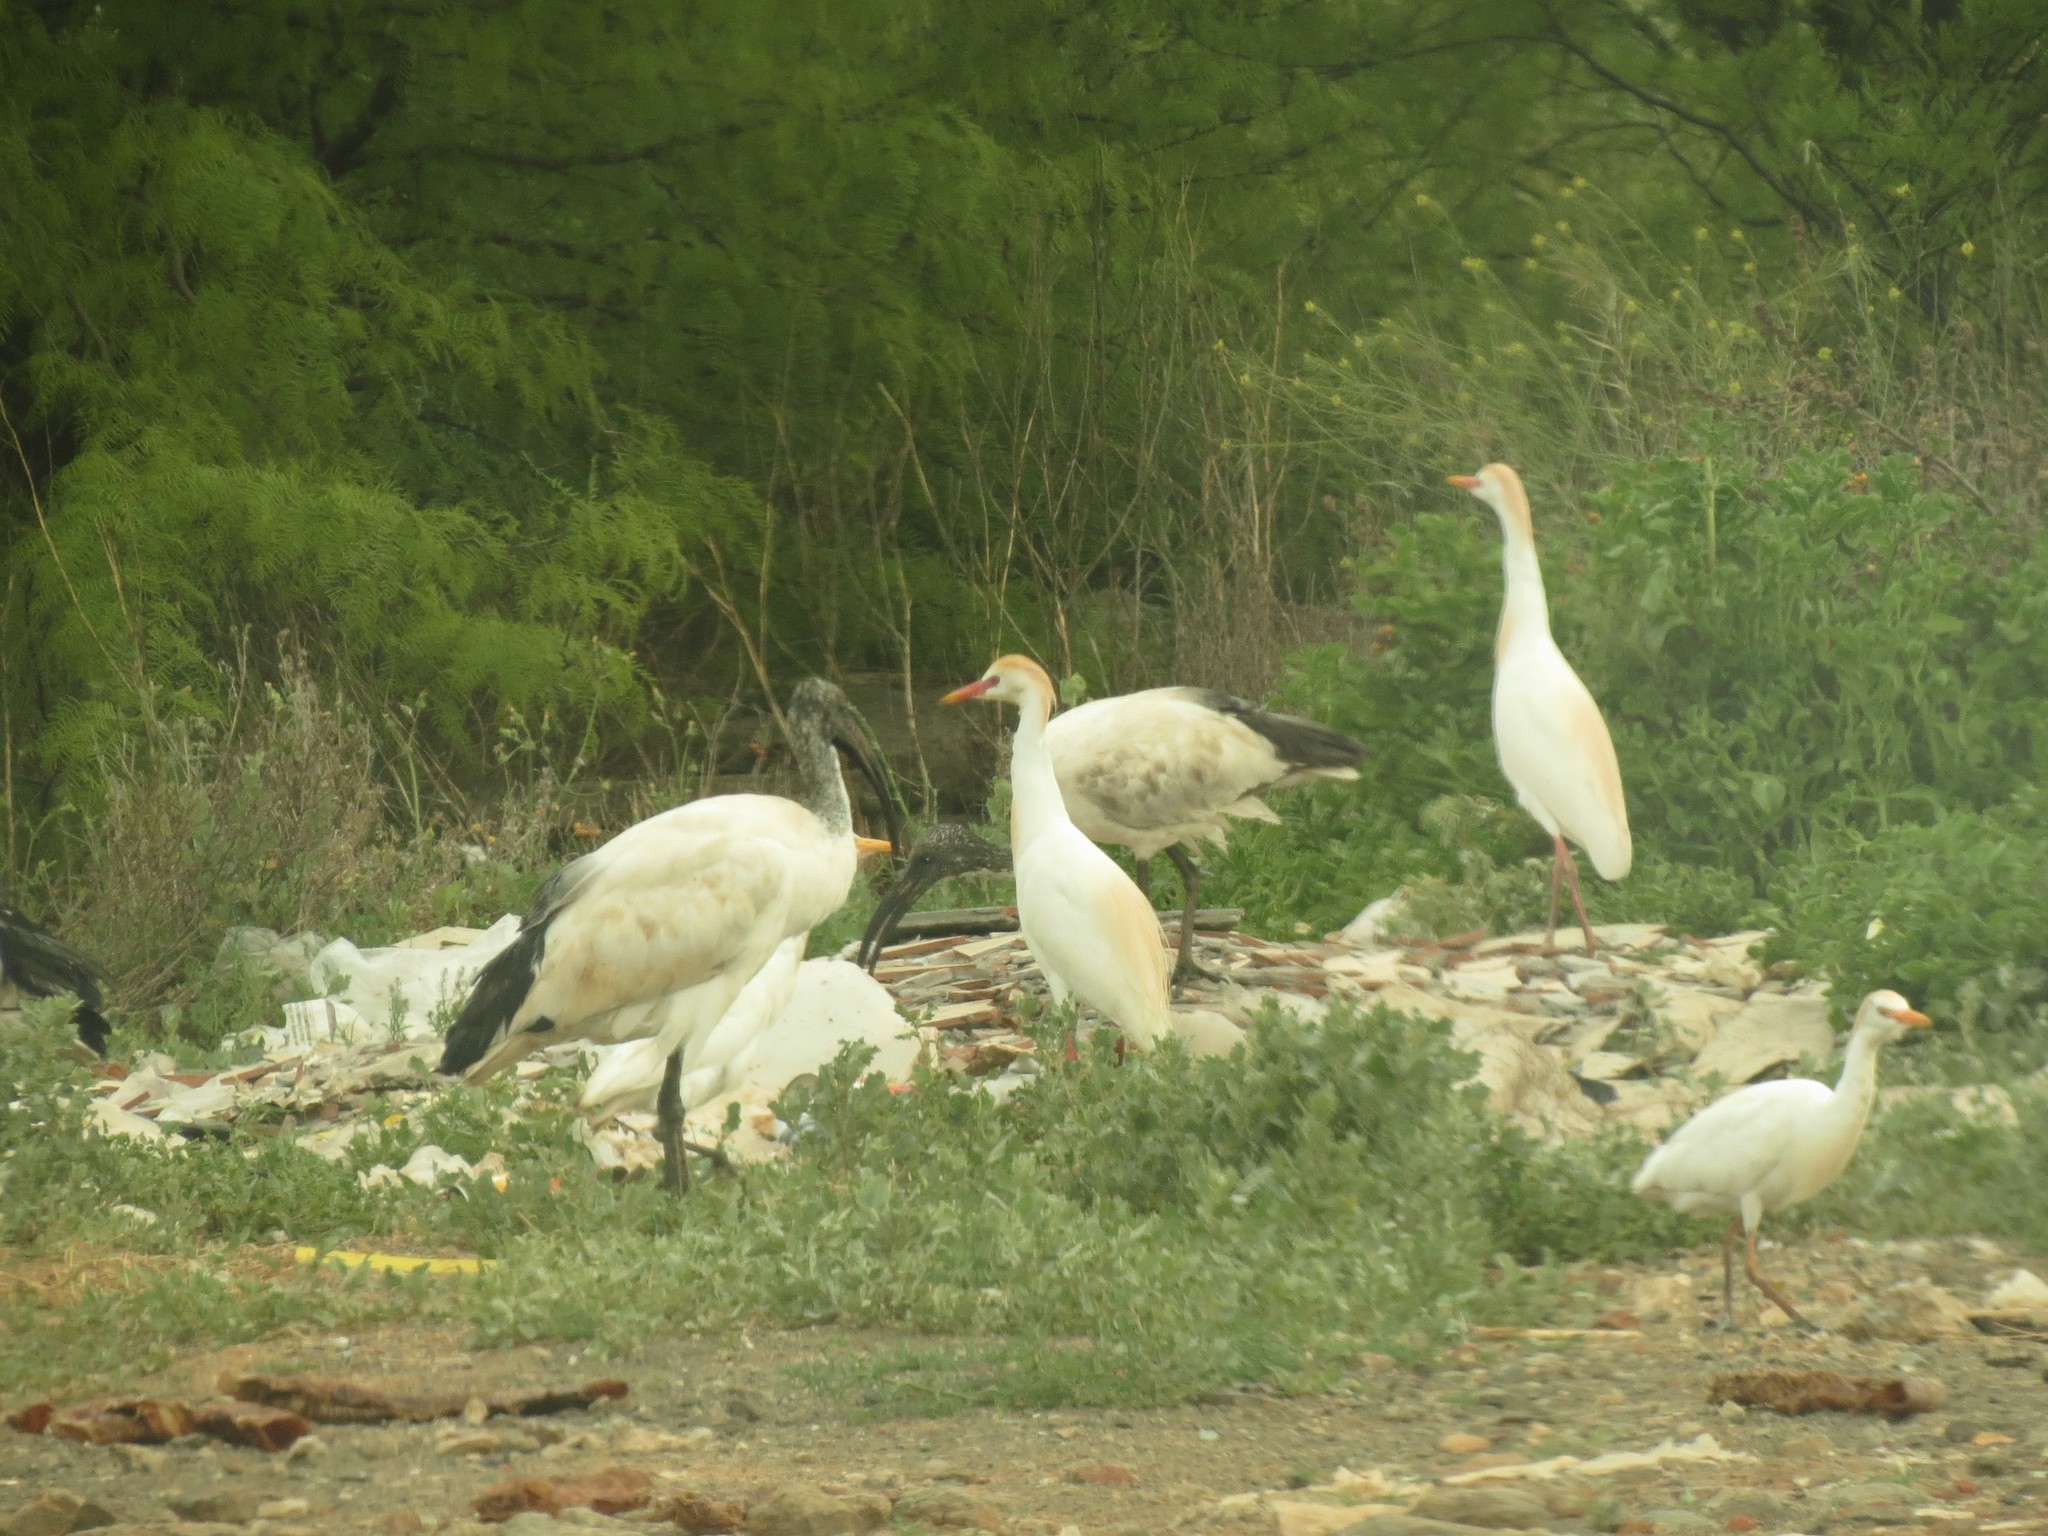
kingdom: Animalia
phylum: Chordata
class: Aves
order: Pelecaniformes
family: Ardeidae
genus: Bubulcus
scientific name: Bubulcus ibis
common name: Cattle egret
